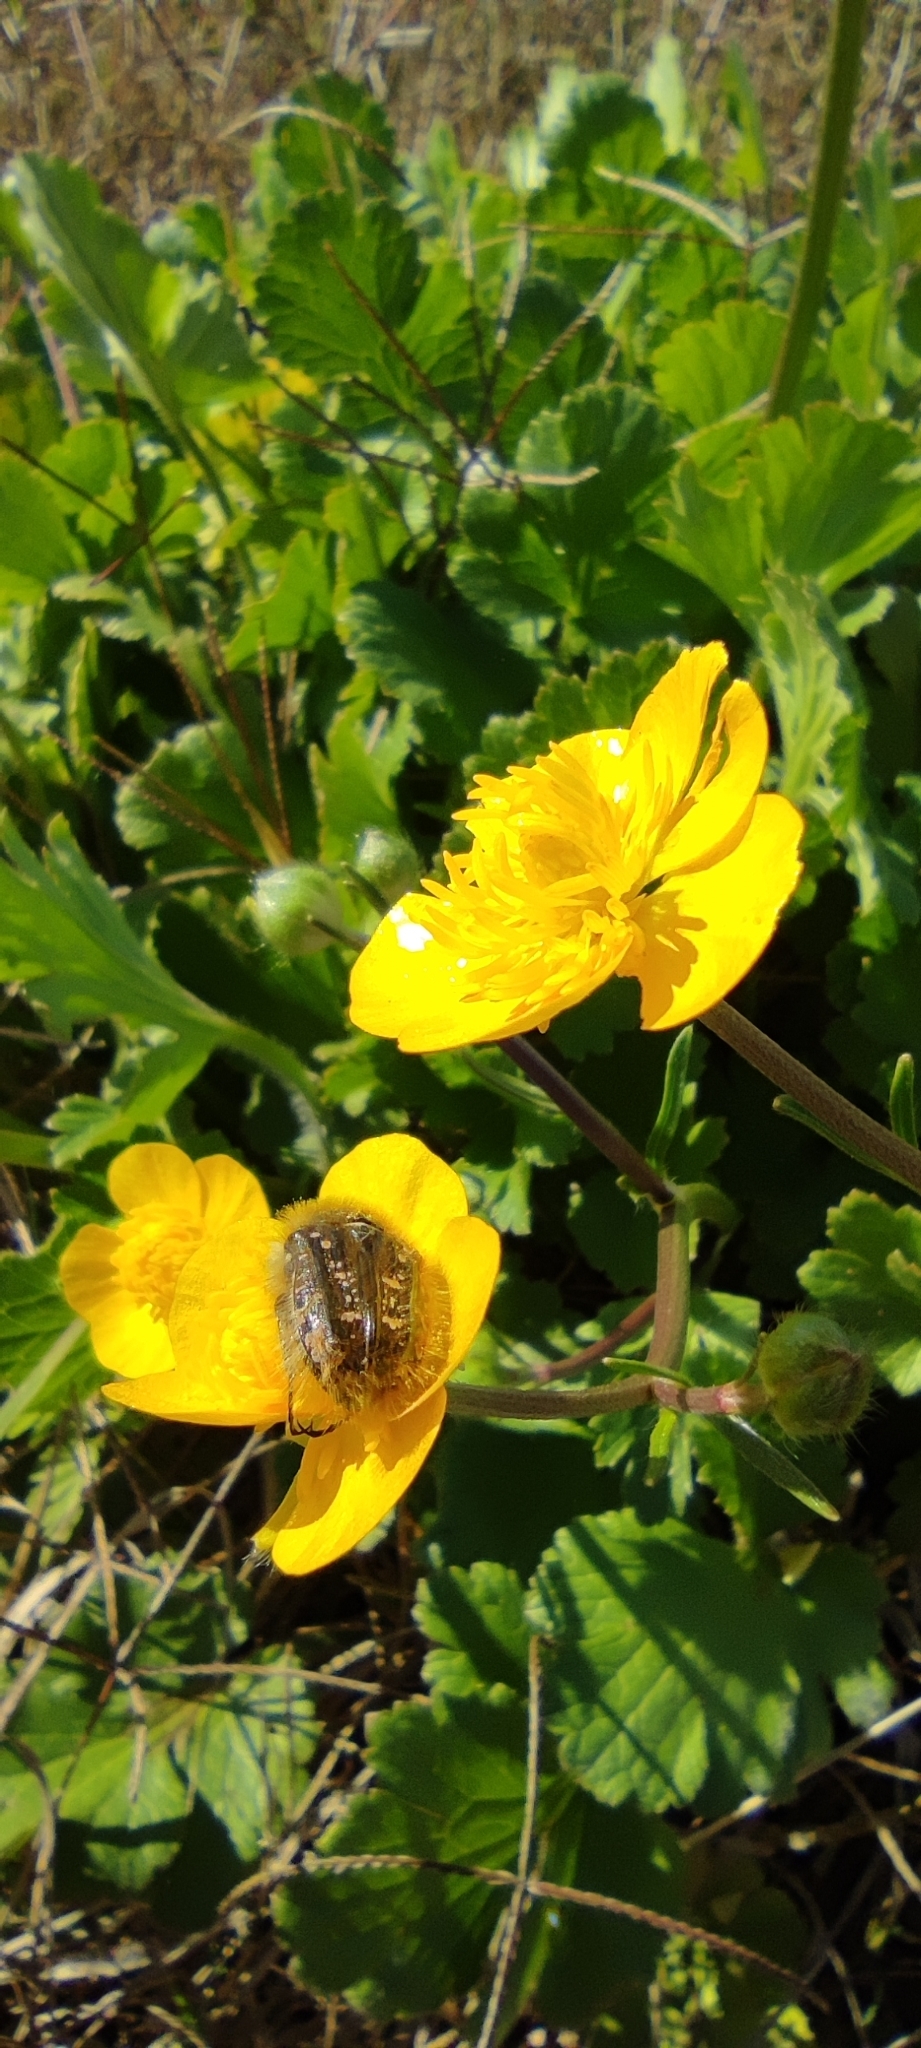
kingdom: Animalia
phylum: Arthropoda
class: Insecta
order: Coleoptera
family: Scarabaeidae
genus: Tropinota
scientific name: Tropinota squalida
